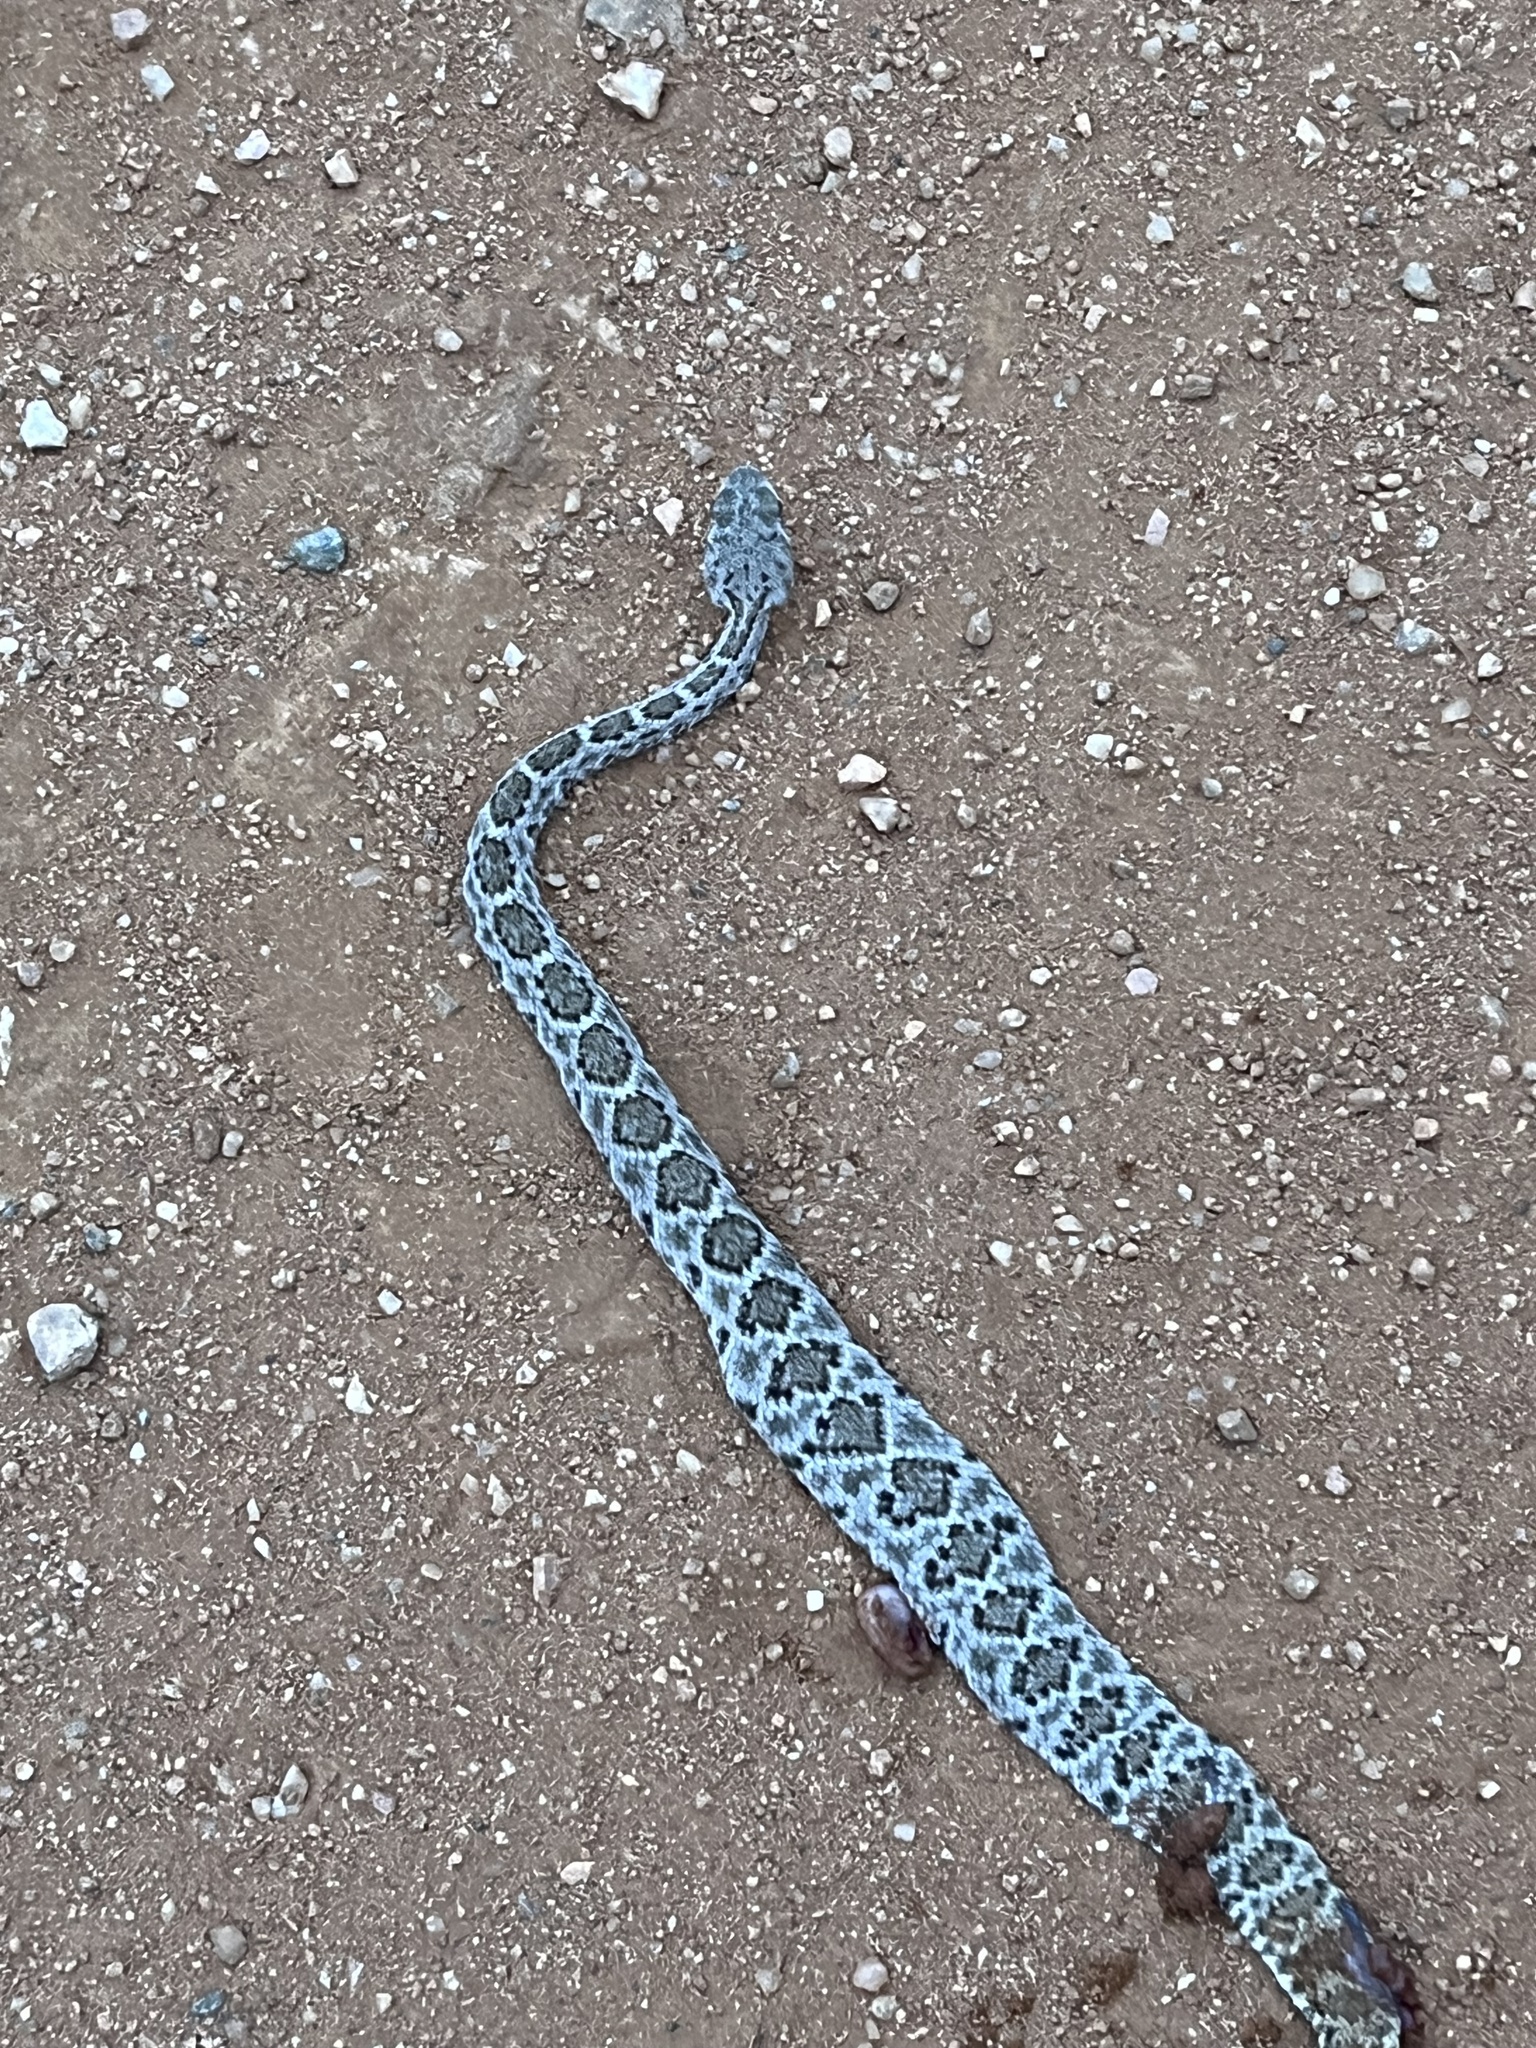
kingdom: Animalia
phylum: Chordata
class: Squamata
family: Viperidae
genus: Crotalus
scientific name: Crotalus atrox
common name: Western diamond-backed rattlesnake
